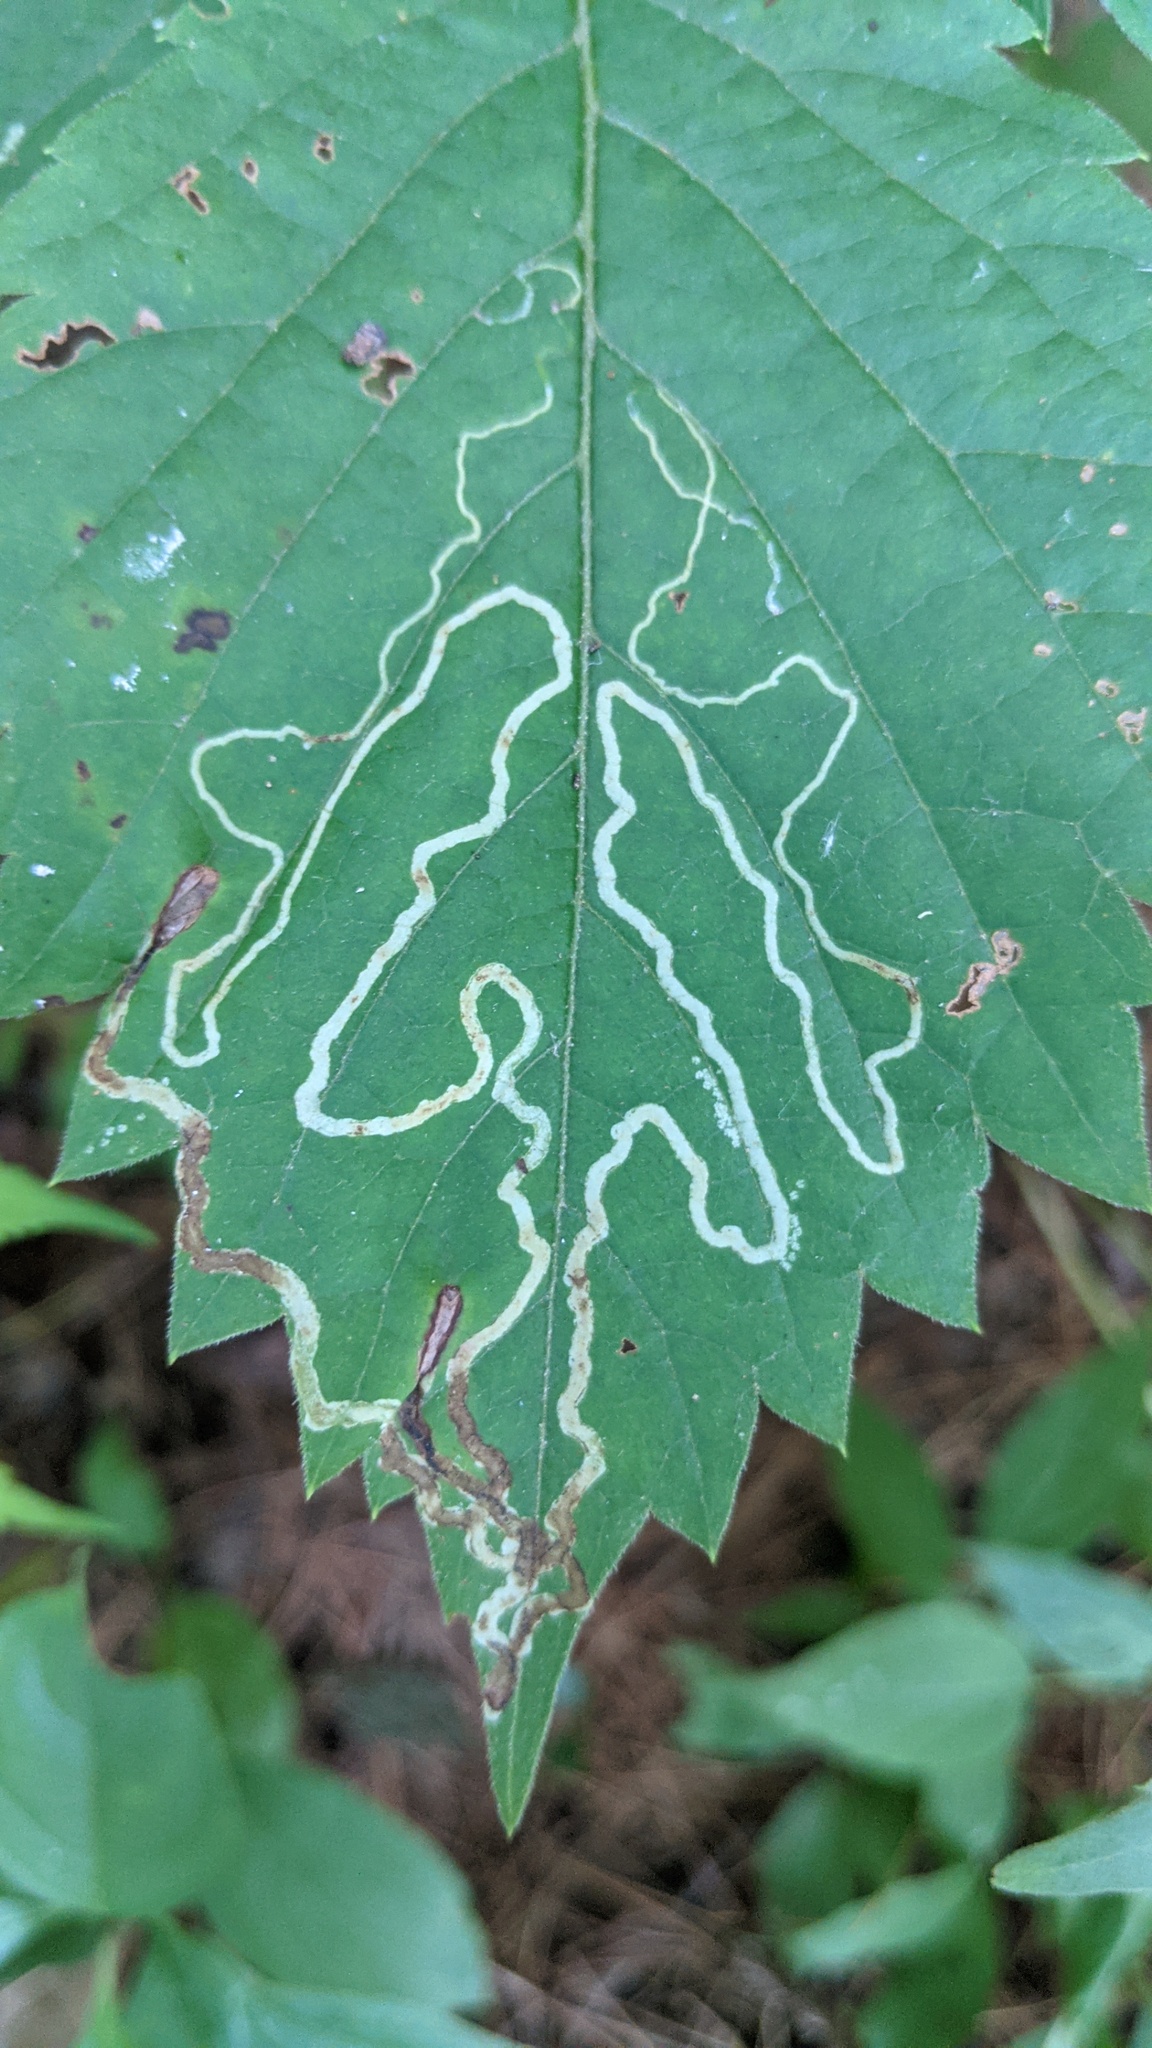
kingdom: Animalia
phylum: Arthropoda
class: Insecta
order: Lepidoptera
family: Gracillariidae
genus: Phyllocnistis
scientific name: Phyllocnistis vitifoliella
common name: Grape leaf-miner moth
